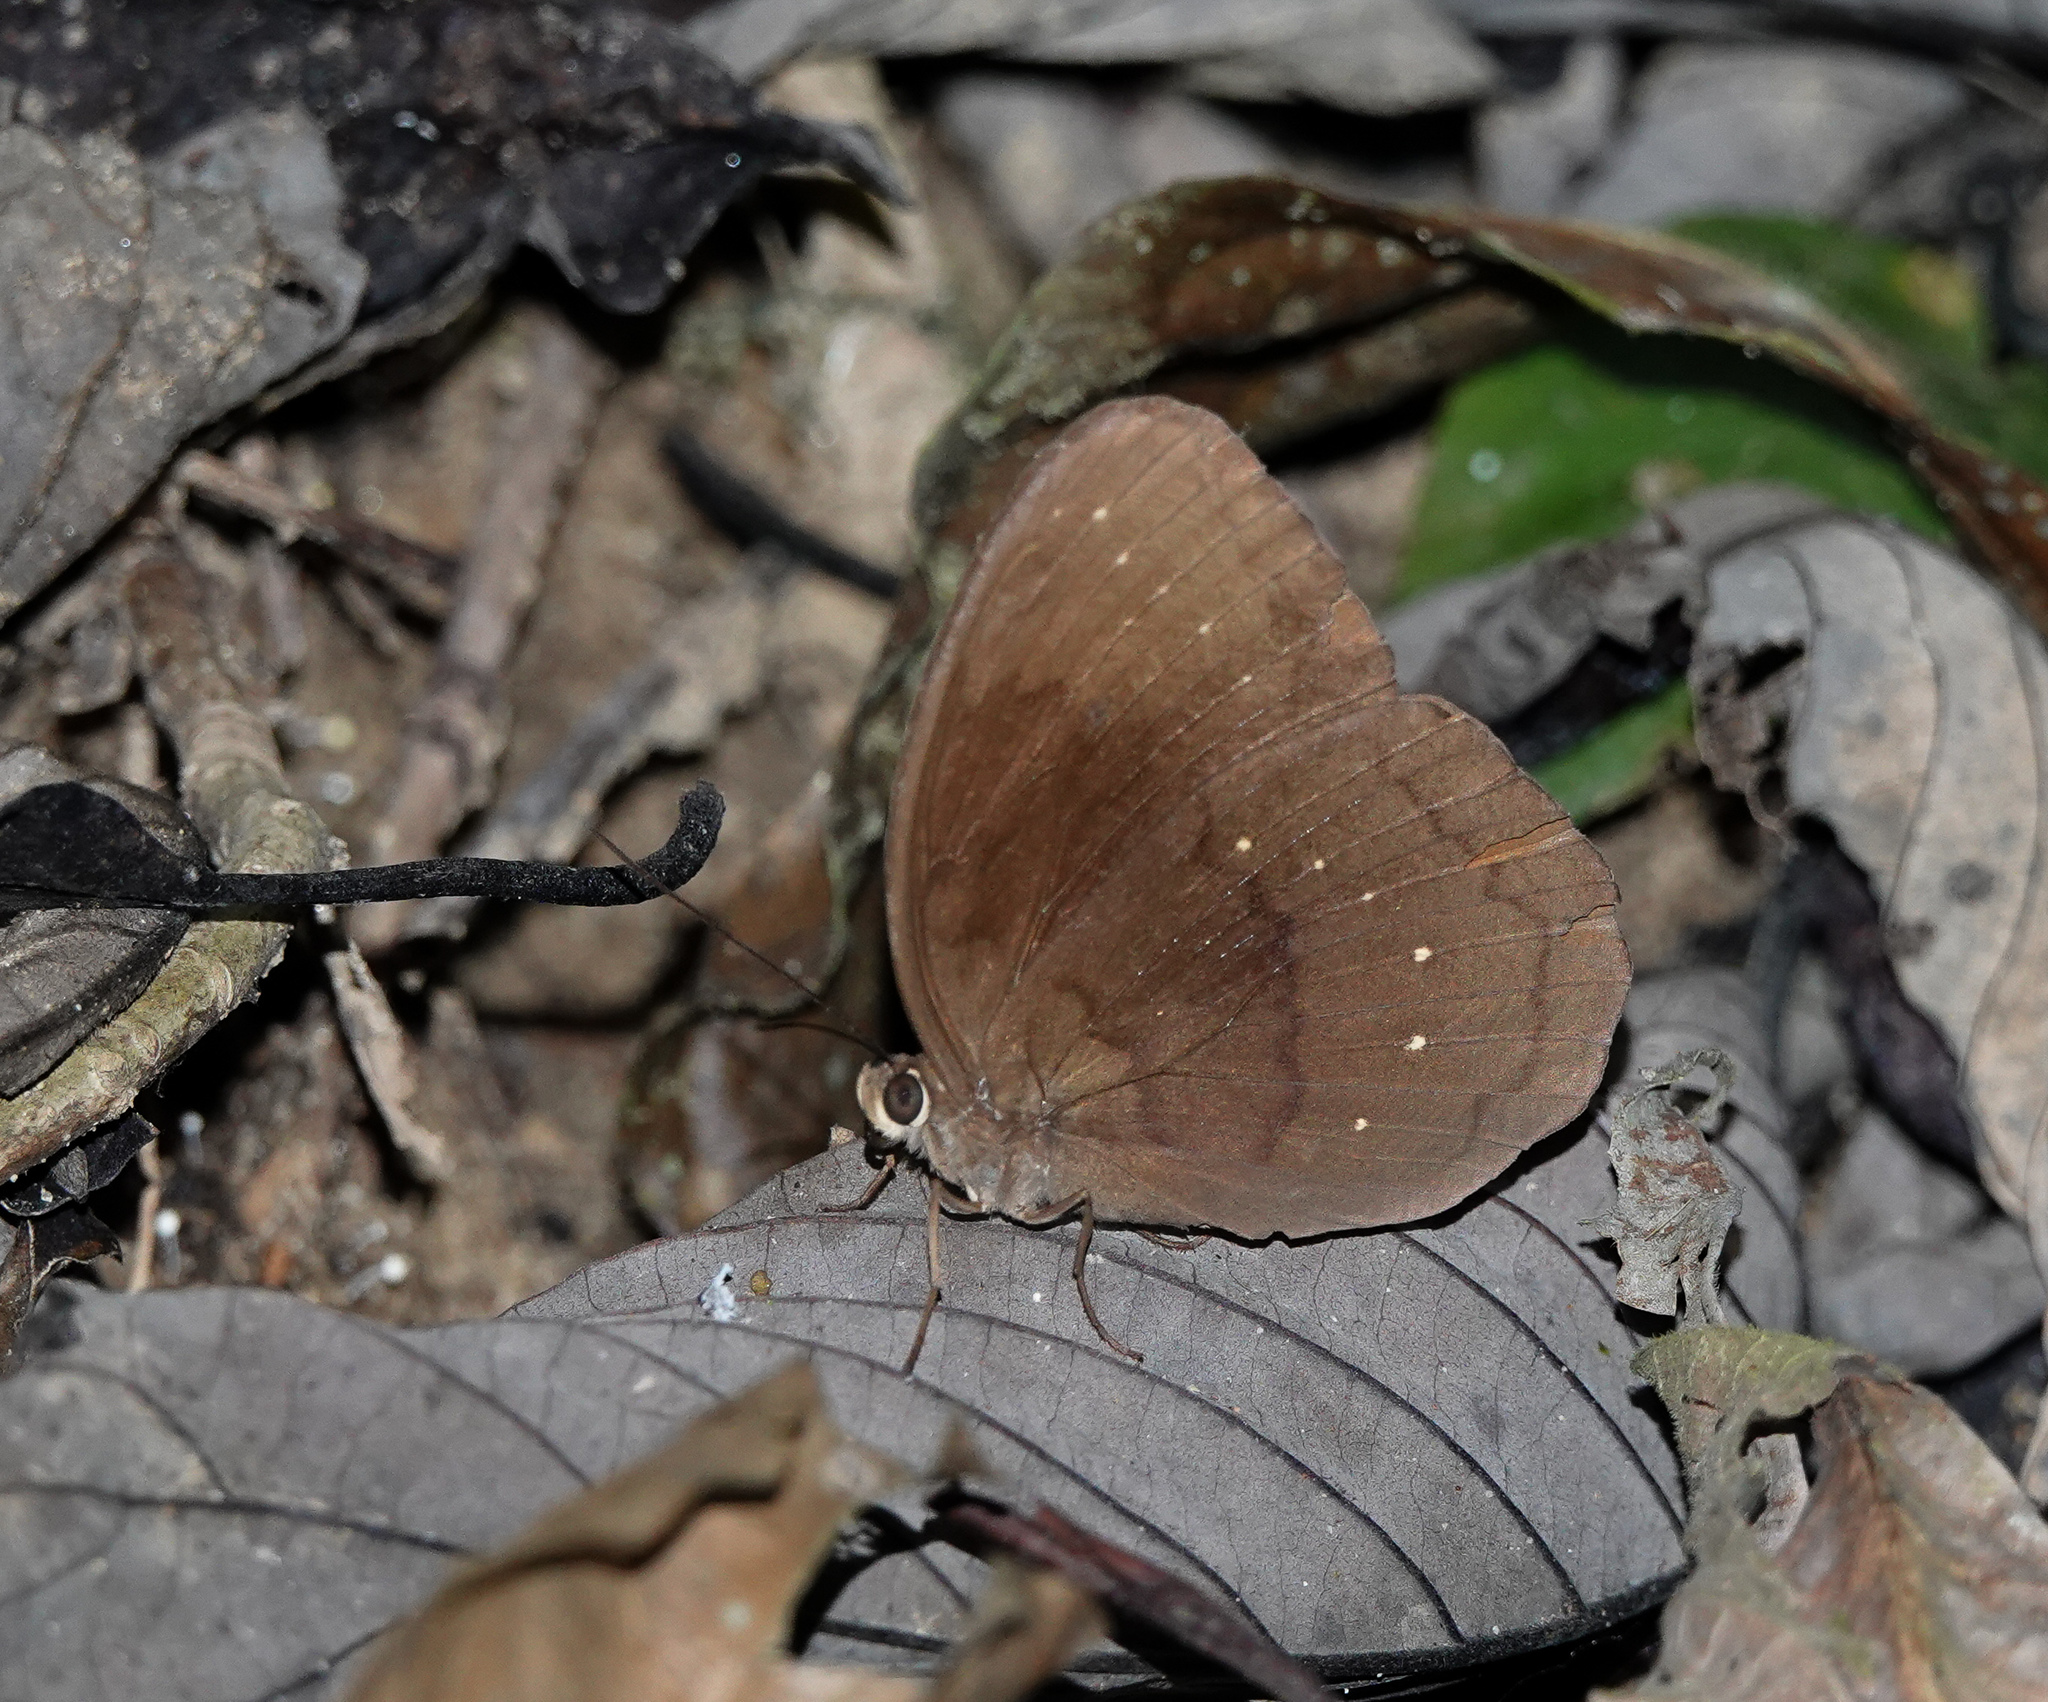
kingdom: Animalia
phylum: Arthropoda
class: Insecta
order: Lepidoptera
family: Nymphalidae
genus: Faunis
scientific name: Faunis canens
